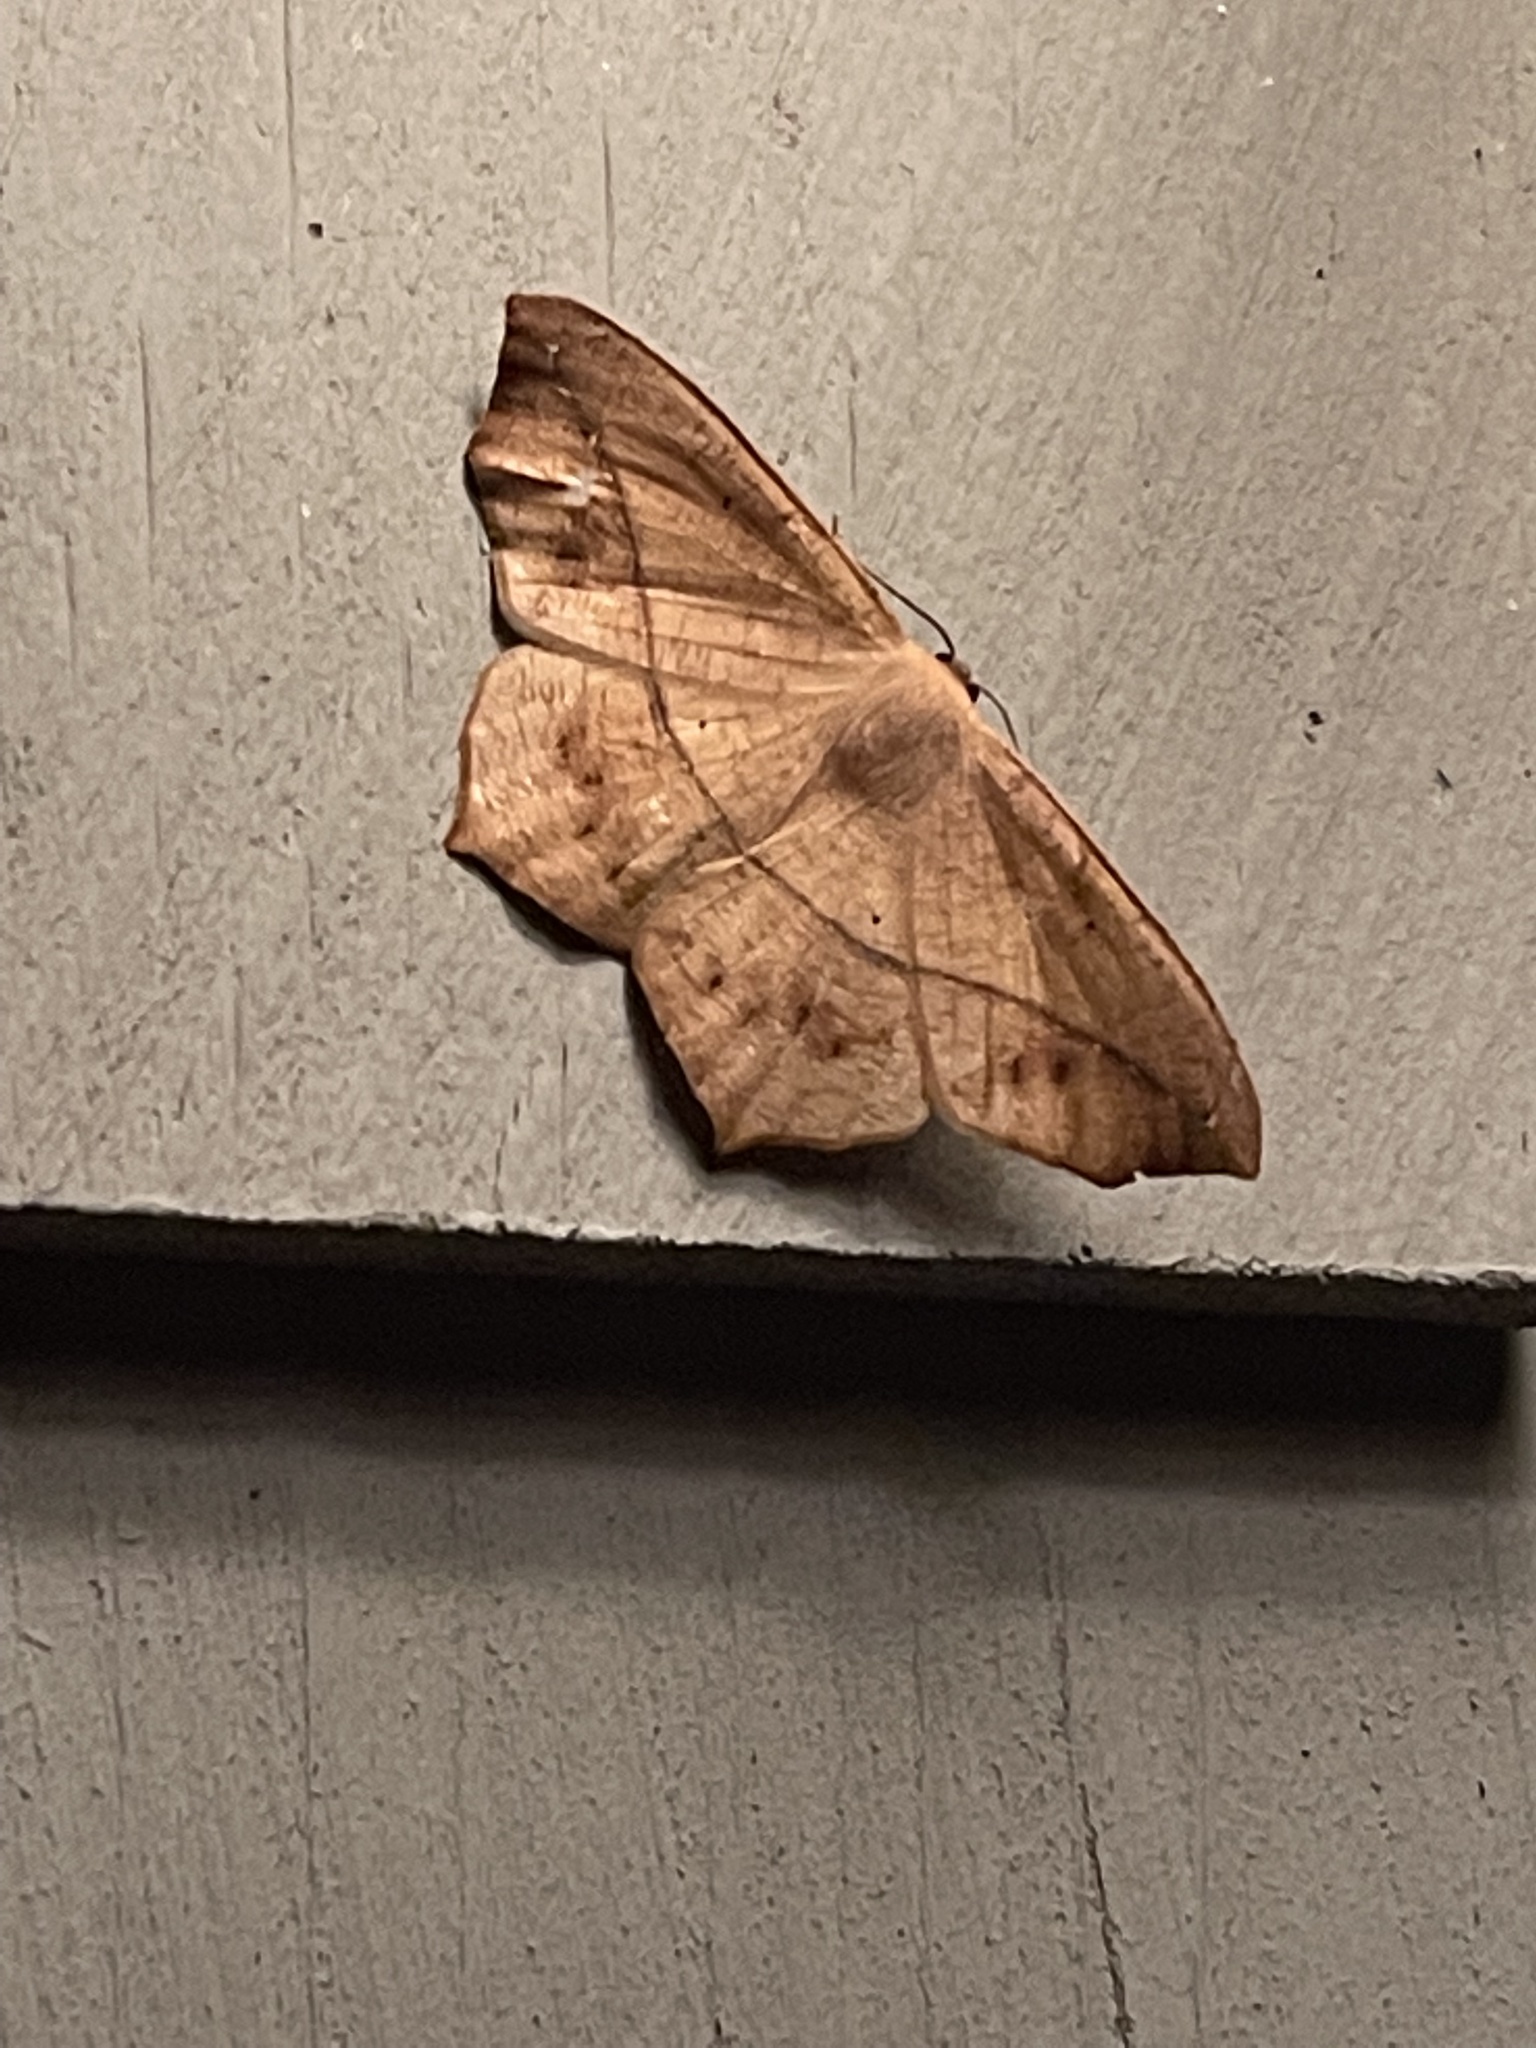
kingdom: Animalia
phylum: Arthropoda
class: Insecta
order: Lepidoptera
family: Geometridae
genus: Prochoerodes
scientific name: Prochoerodes lineola
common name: Large maple spanworm
